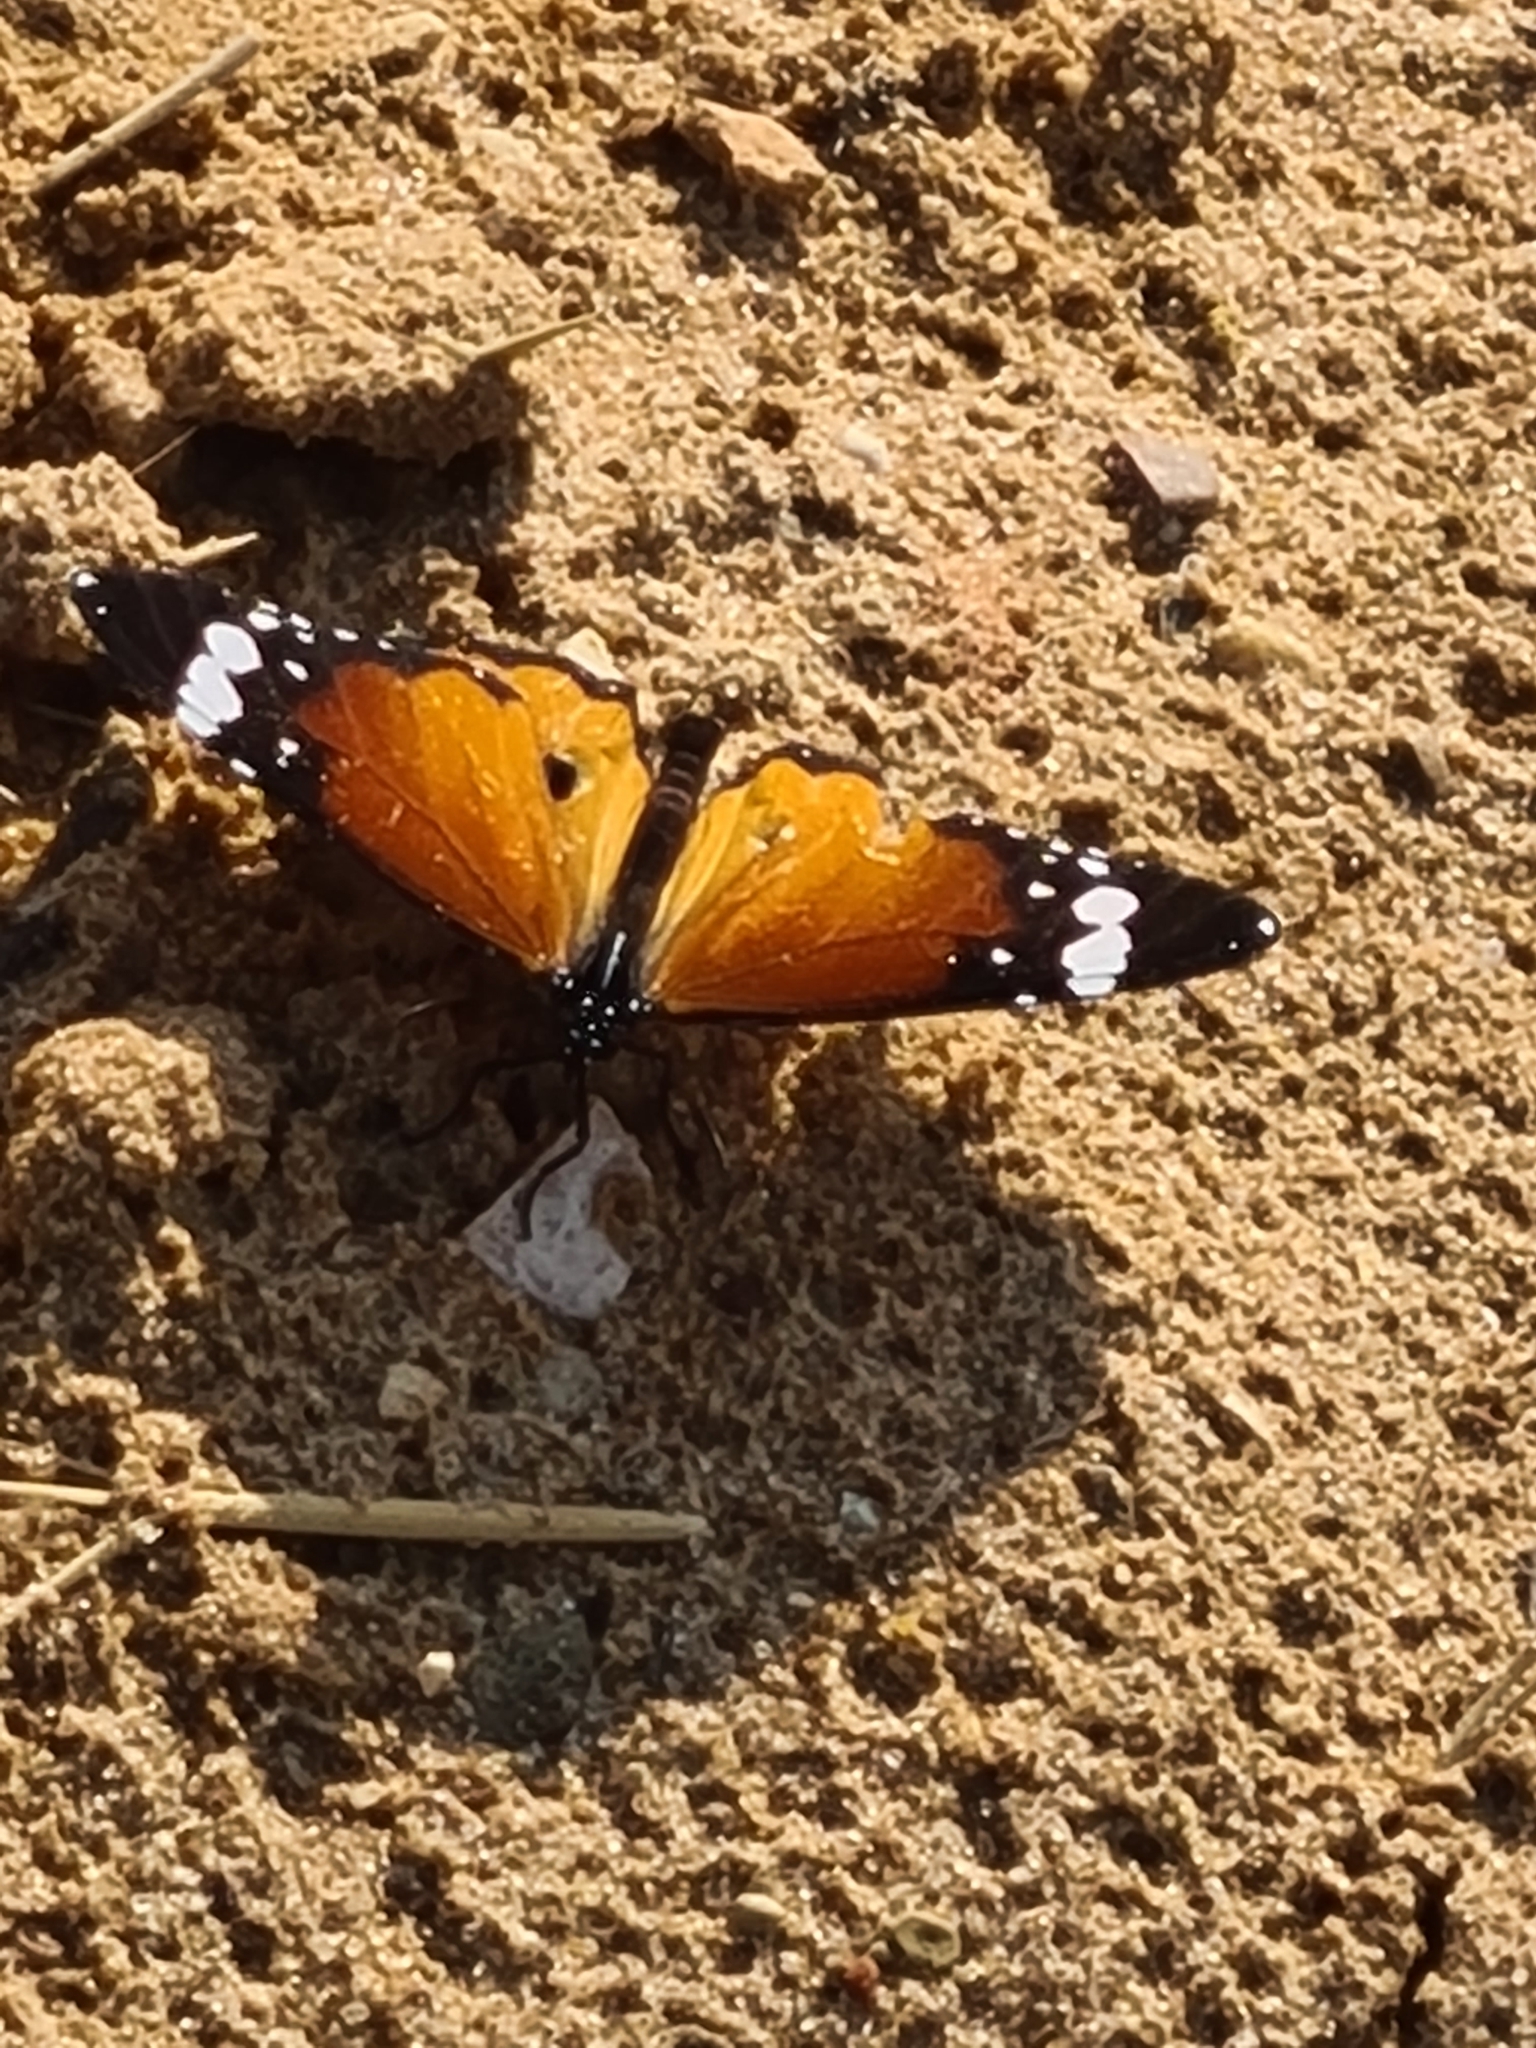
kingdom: Animalia
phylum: Arthropoda
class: Insecta
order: Lepidoptera
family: Nymphalidae
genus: Danaus
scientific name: Danaus chrysippus
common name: Plain tiger
